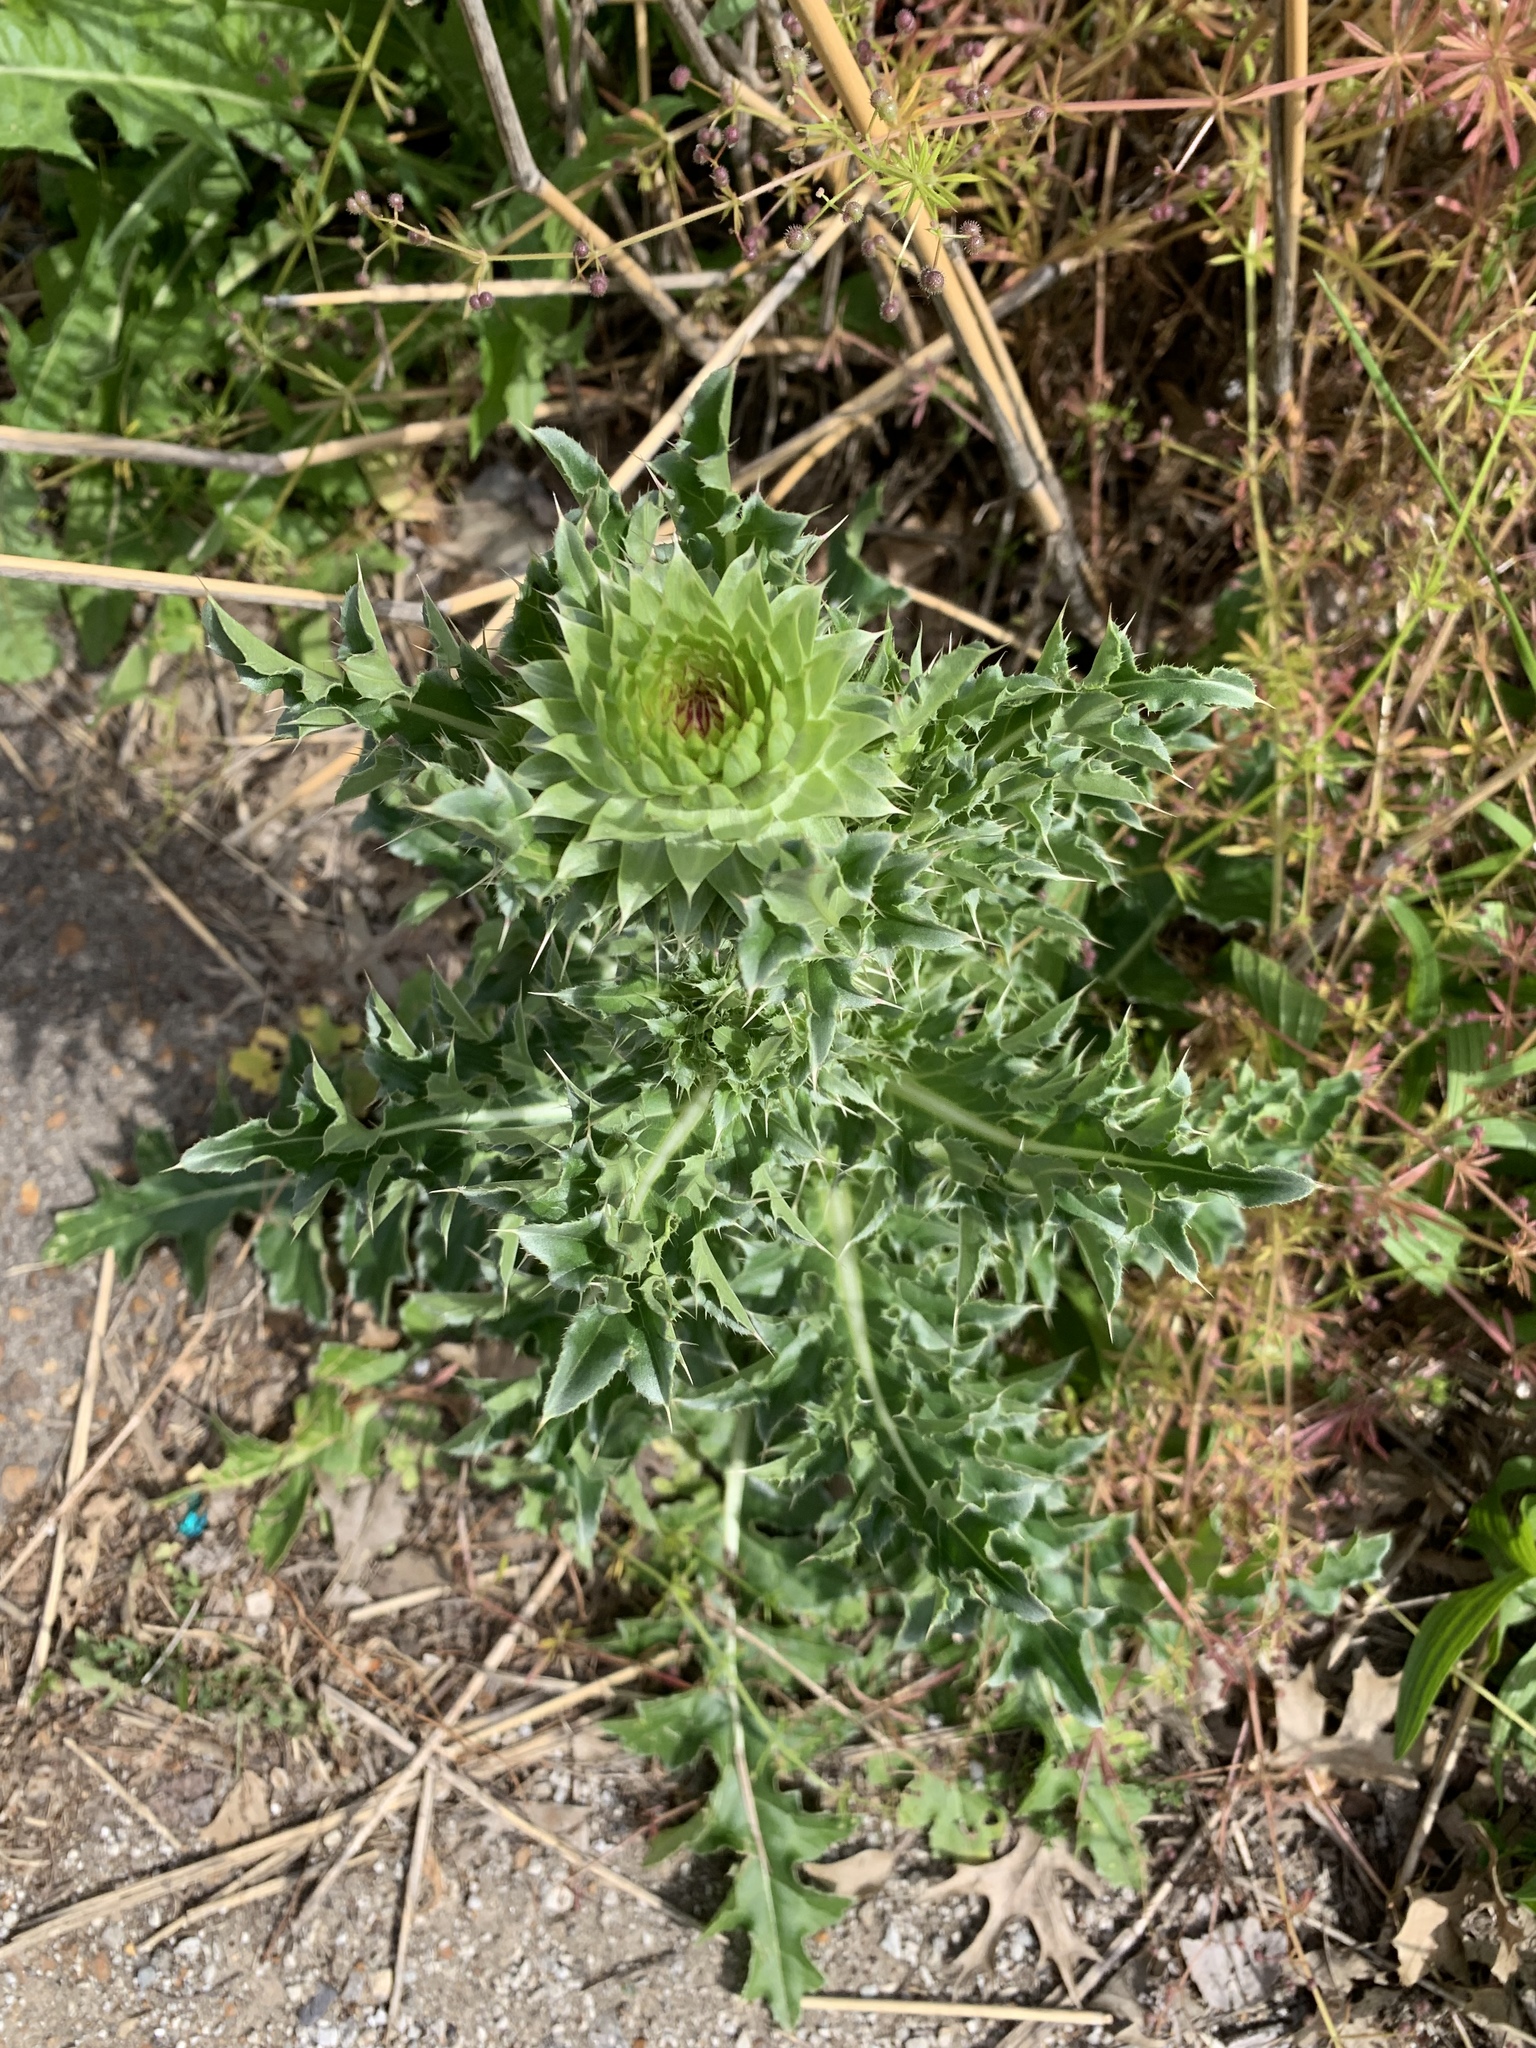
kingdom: Plantae
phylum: Tracheophyta
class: Magnoliopsida
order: Asterales
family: Asteraceae
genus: Carduus
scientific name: Carduus nutans
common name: Musk thistle
